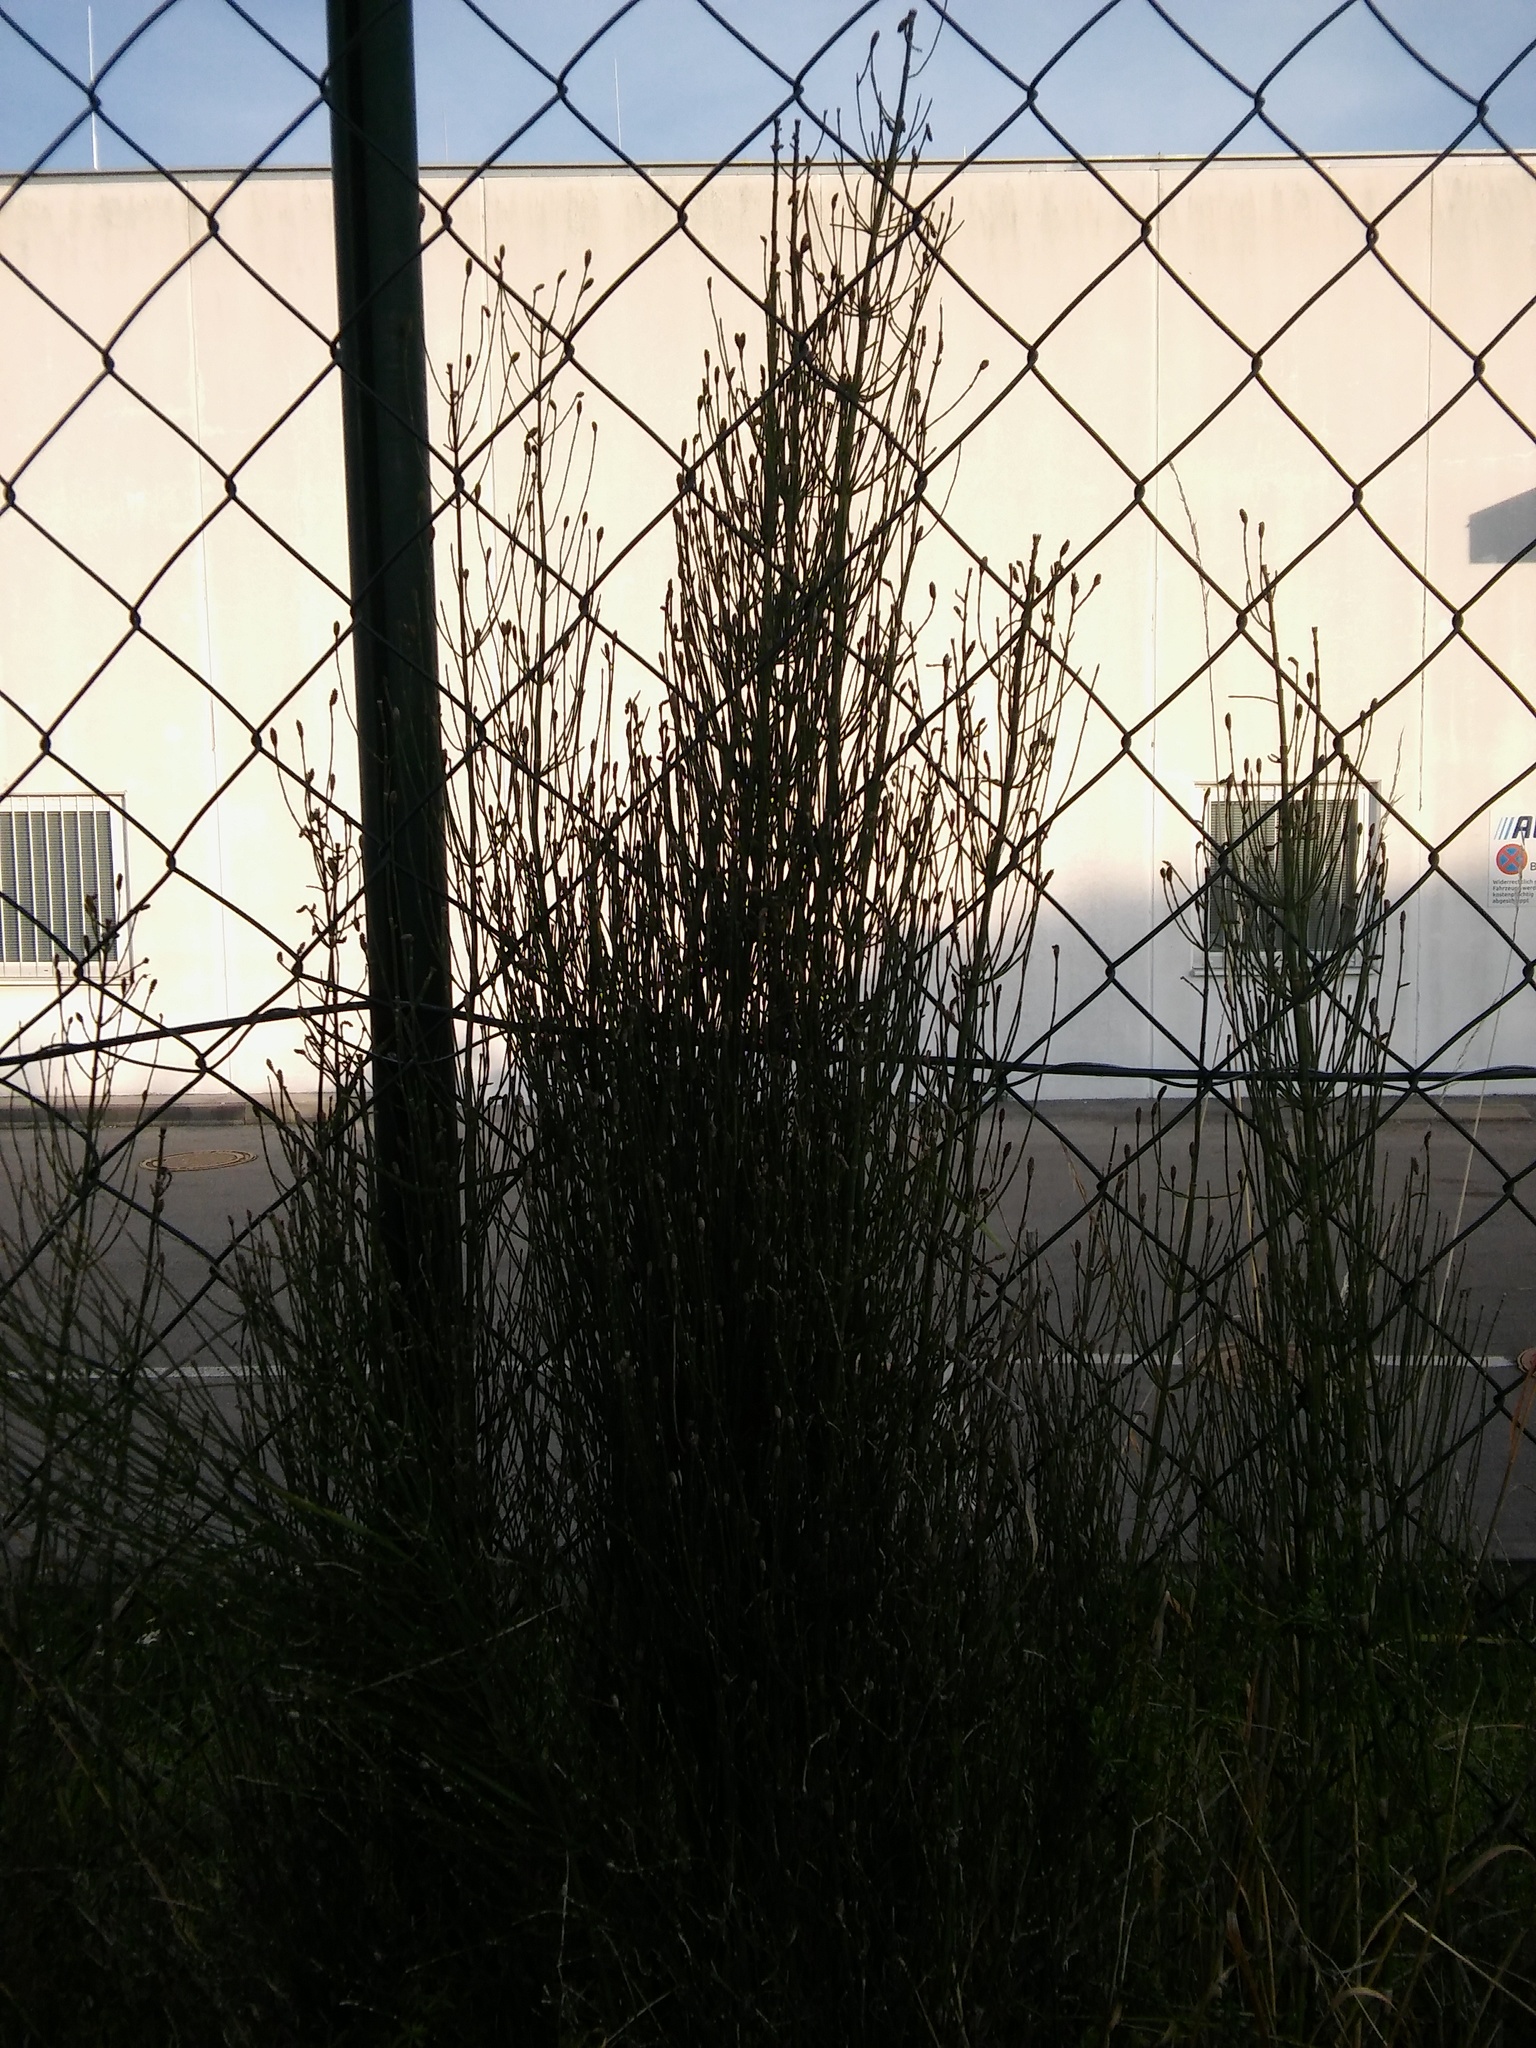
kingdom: Plantae
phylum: Tracheophyta
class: Polypodiopsida
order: Equisetales
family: Equisetaceae
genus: Equisetum
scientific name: Equisetum ramosissimum
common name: Branched horsetail
